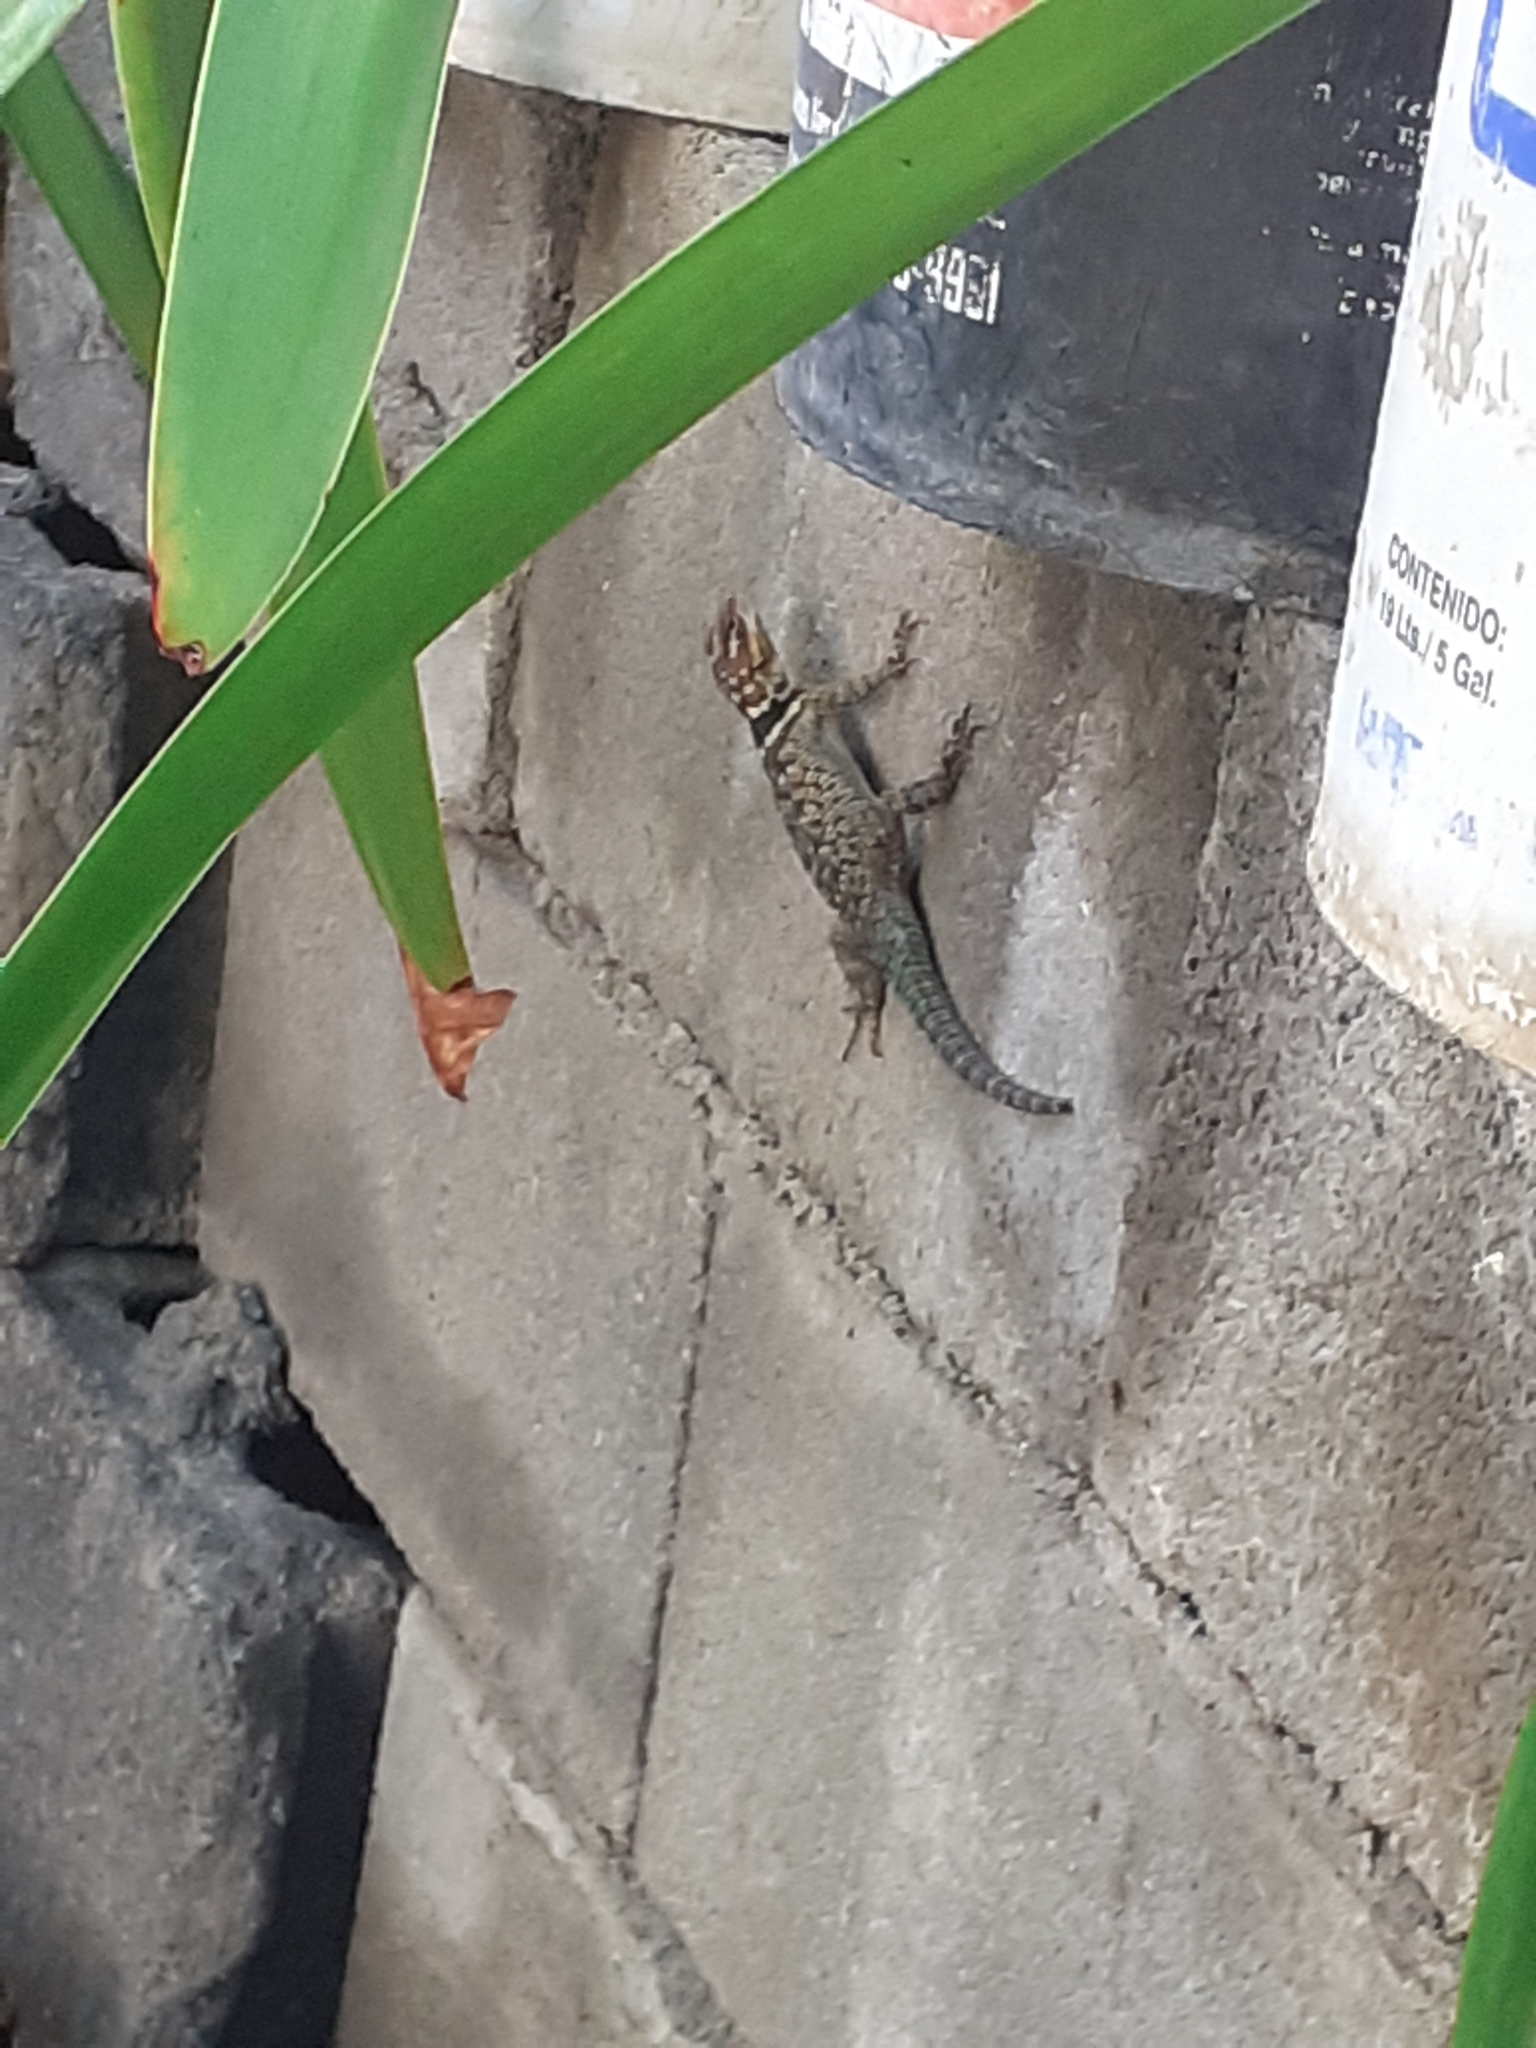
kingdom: Animalia
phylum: Chordata
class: Squamata
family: Phrynosomatidae
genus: Sceloporus
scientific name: Sceloporus cyanogenys
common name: Blue spiny lizard
